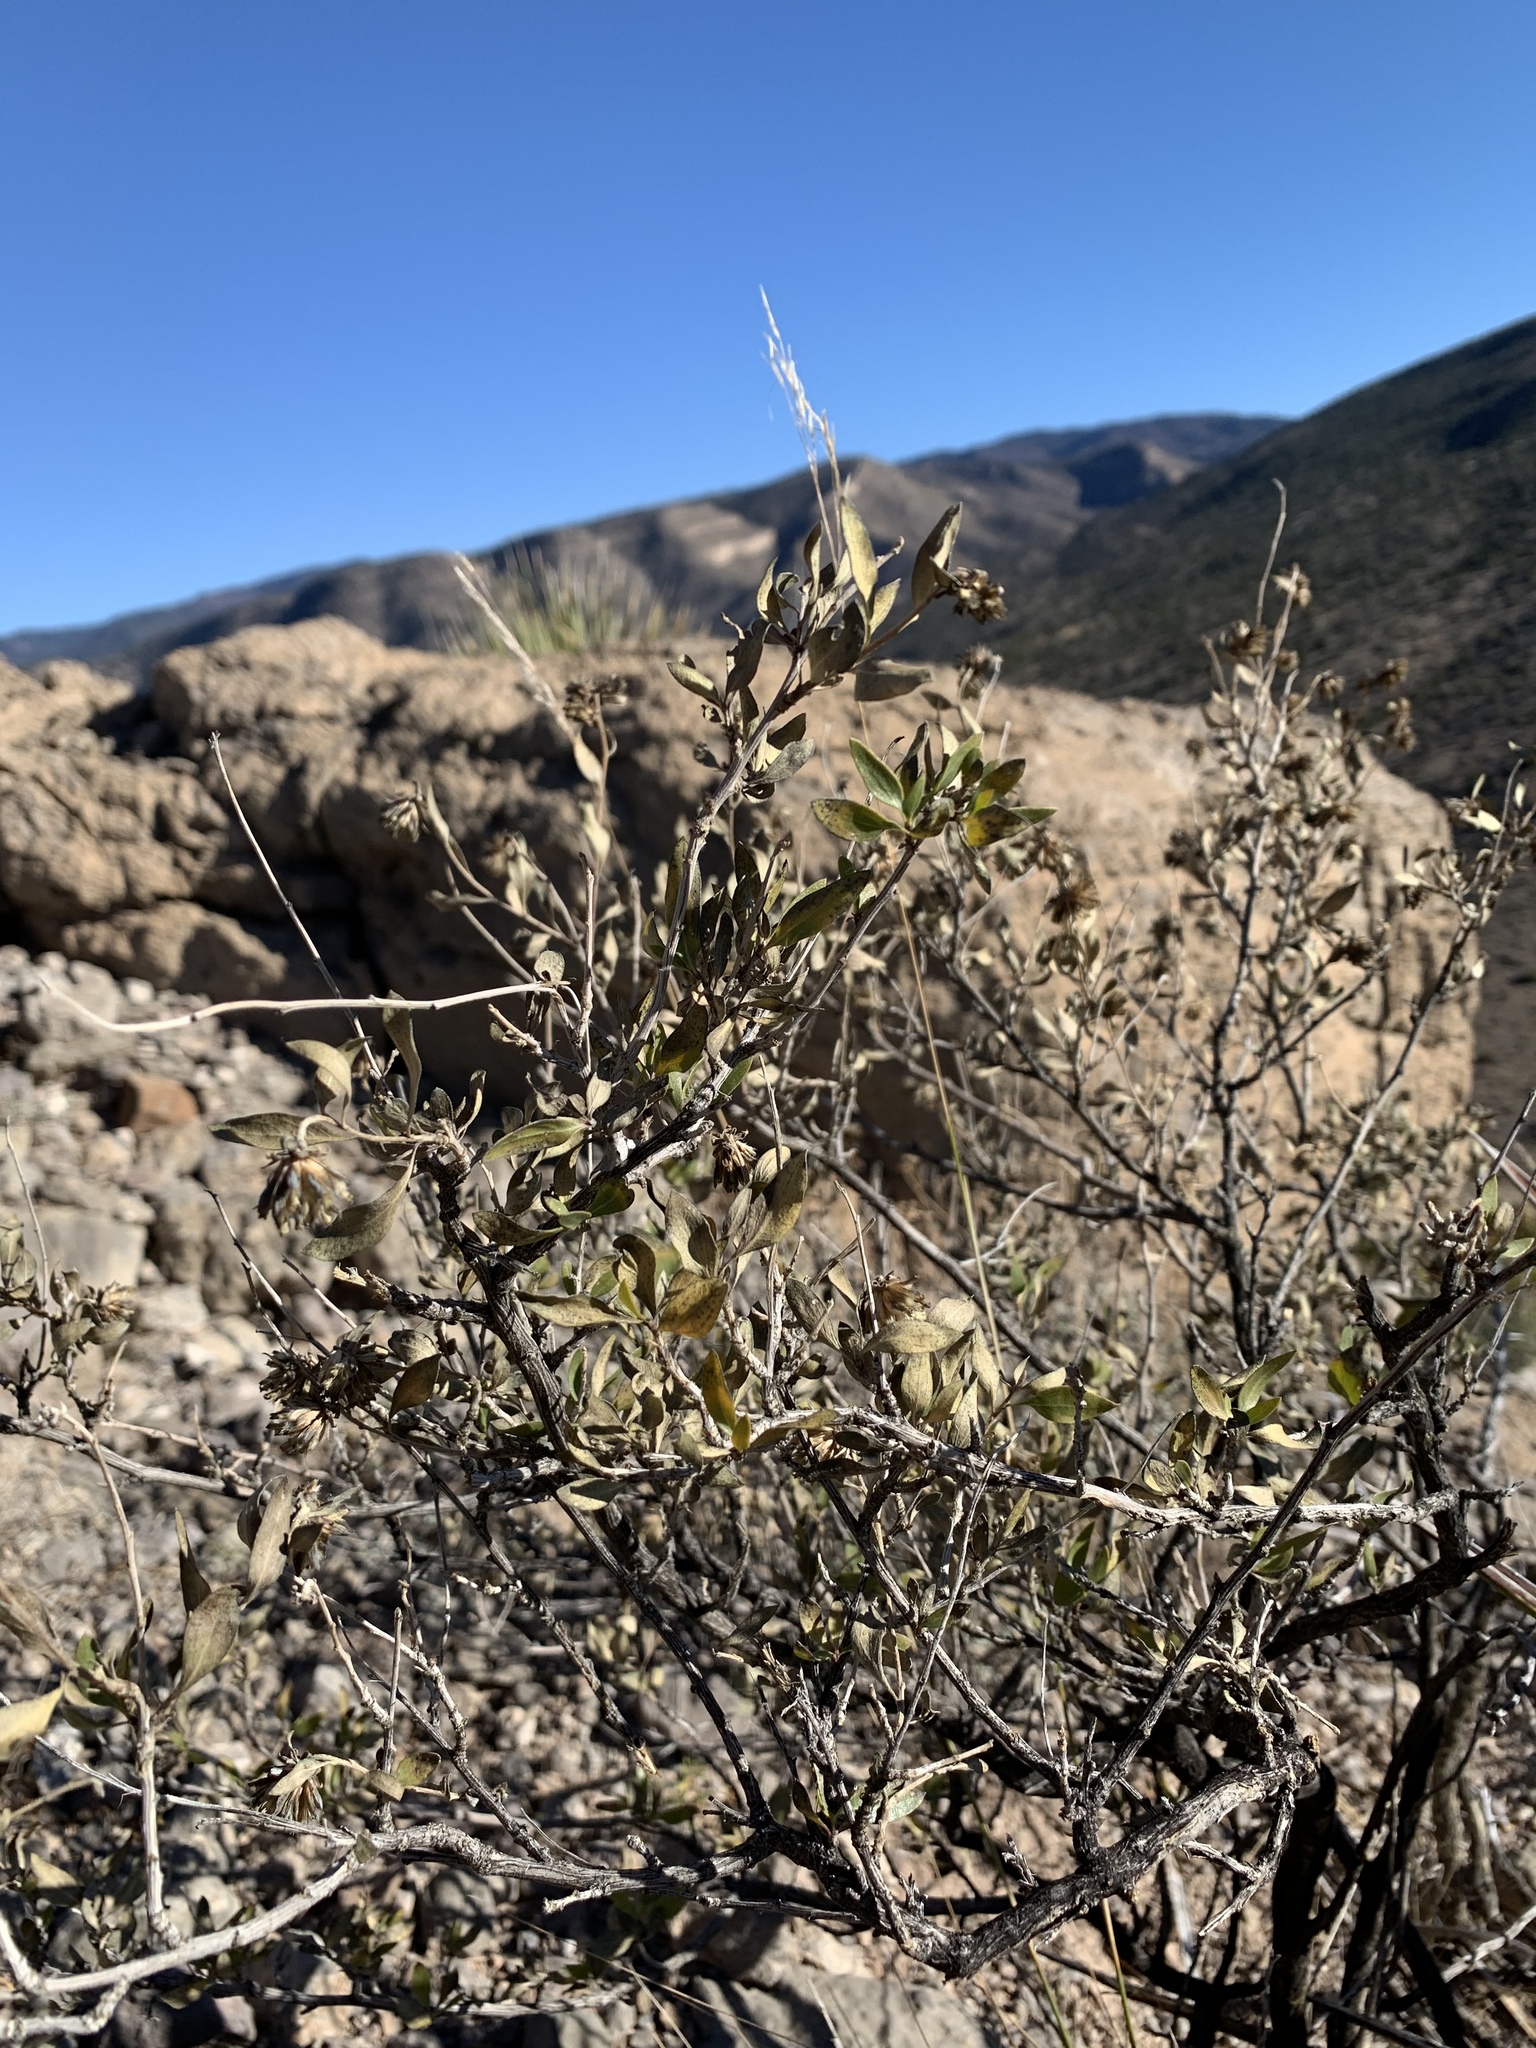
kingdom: Plantae
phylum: Tracheophyta
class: Magnoliopsida
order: Asterales
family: Asteraceae
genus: Flourensia
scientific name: Flourensia cernua
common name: Varnishbush
